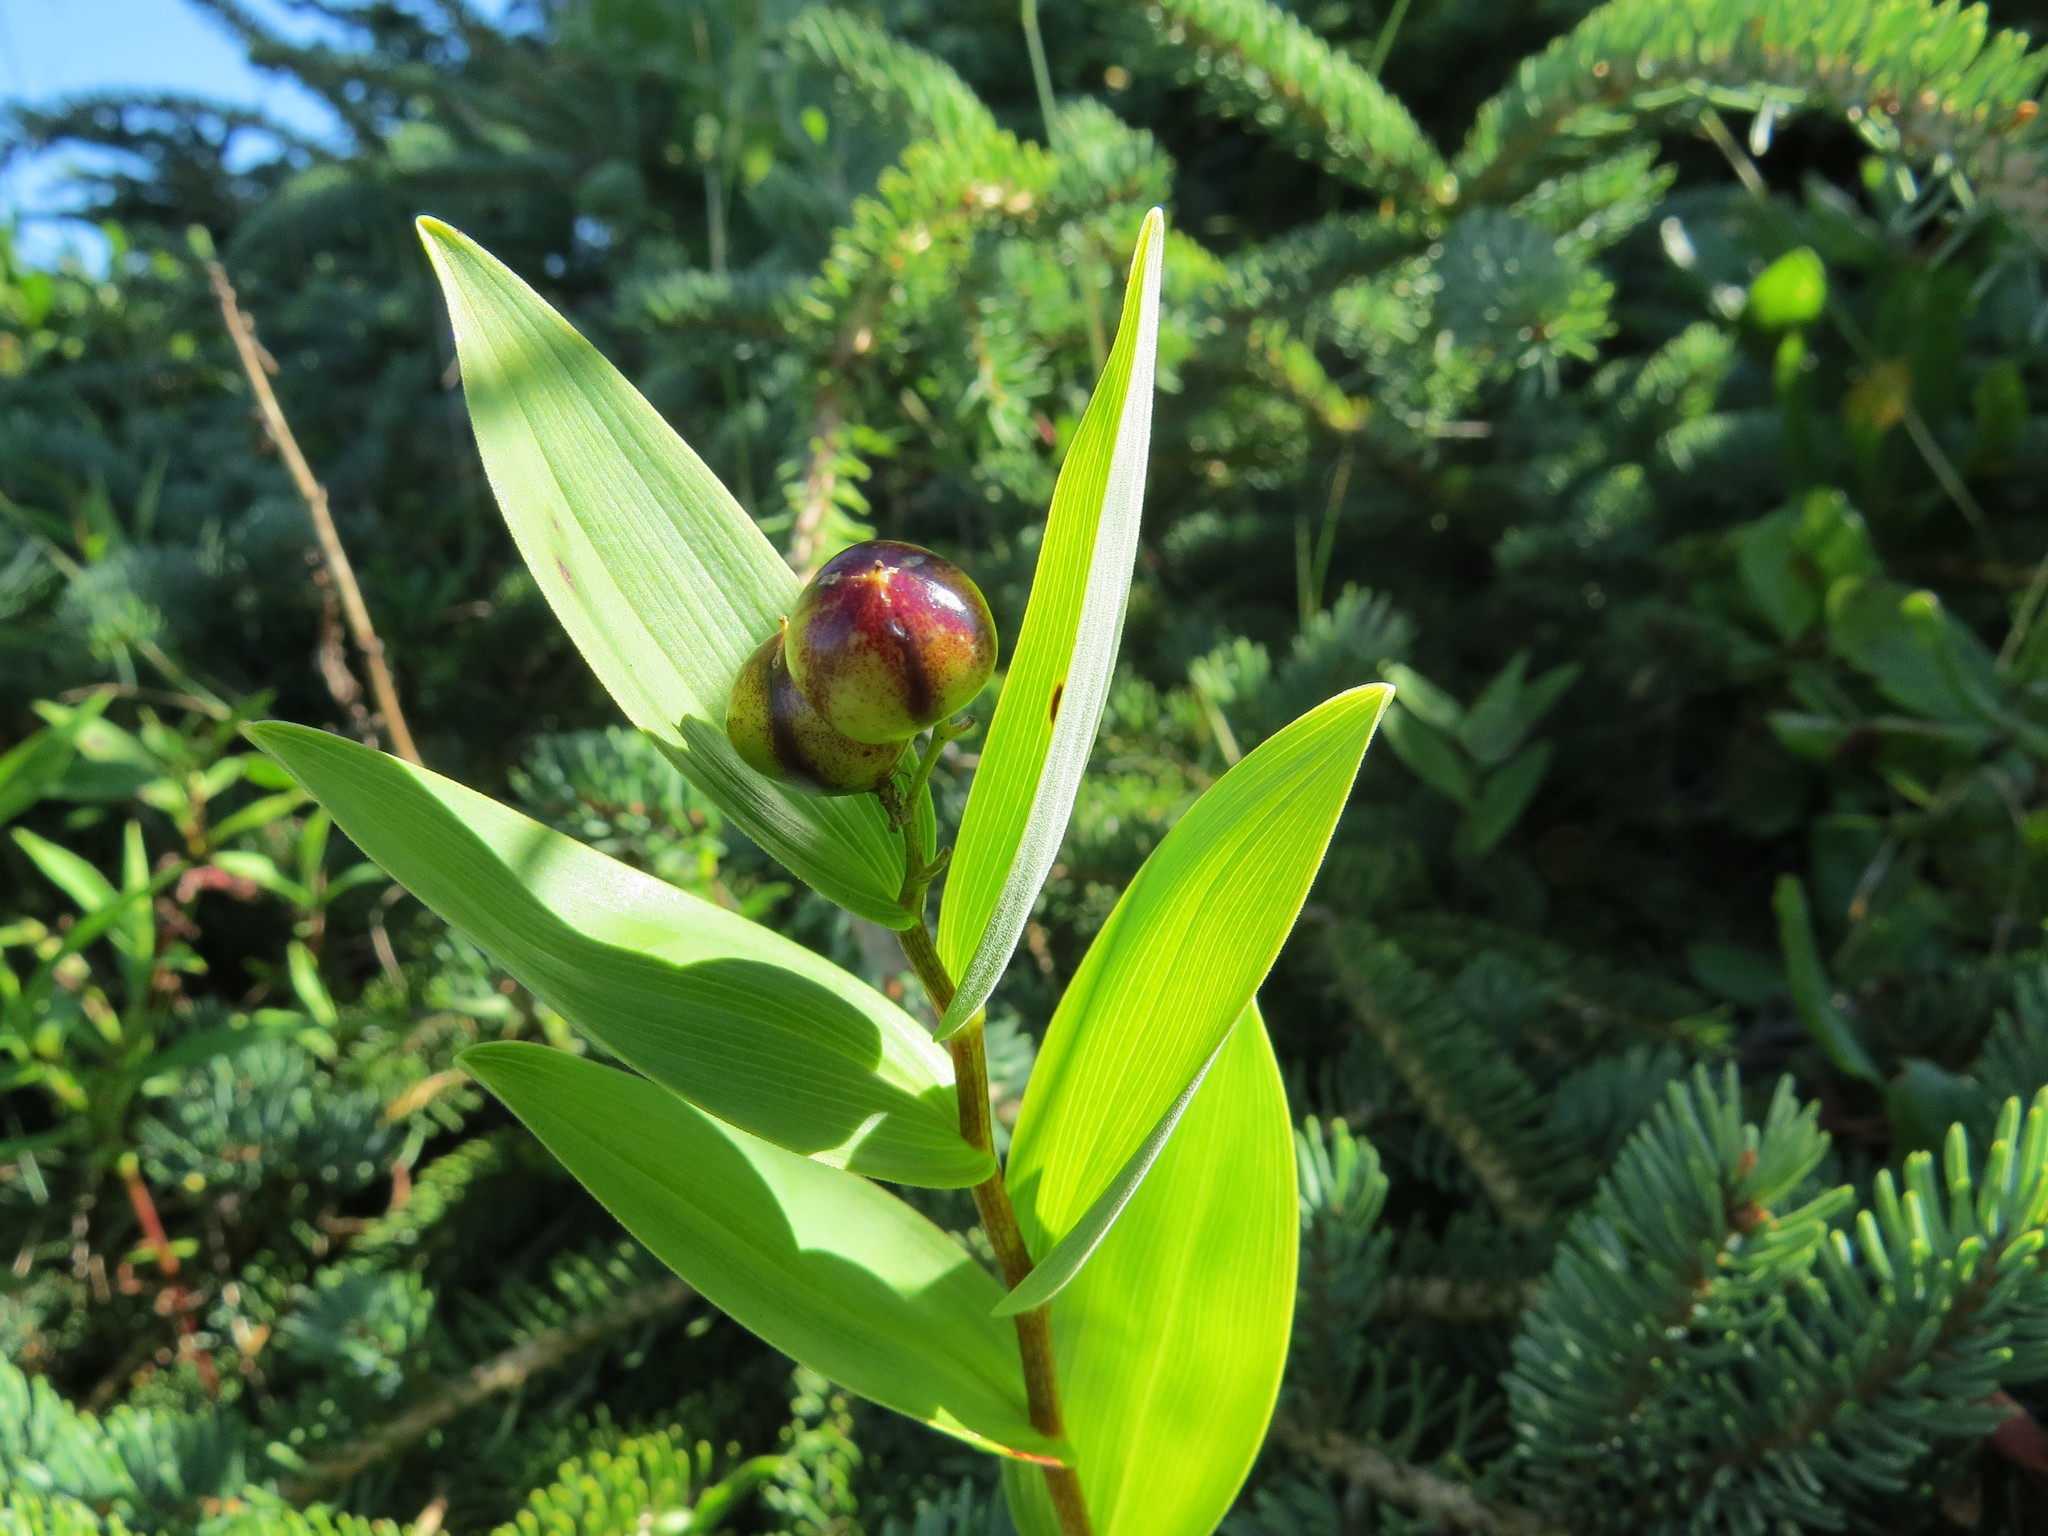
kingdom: Plantae
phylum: Tracheophyta
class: Liliopsida
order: Asparagales
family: Asparagaceae
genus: Maianthemum
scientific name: Maianthemum stellatum
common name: Little false solomon's seal
